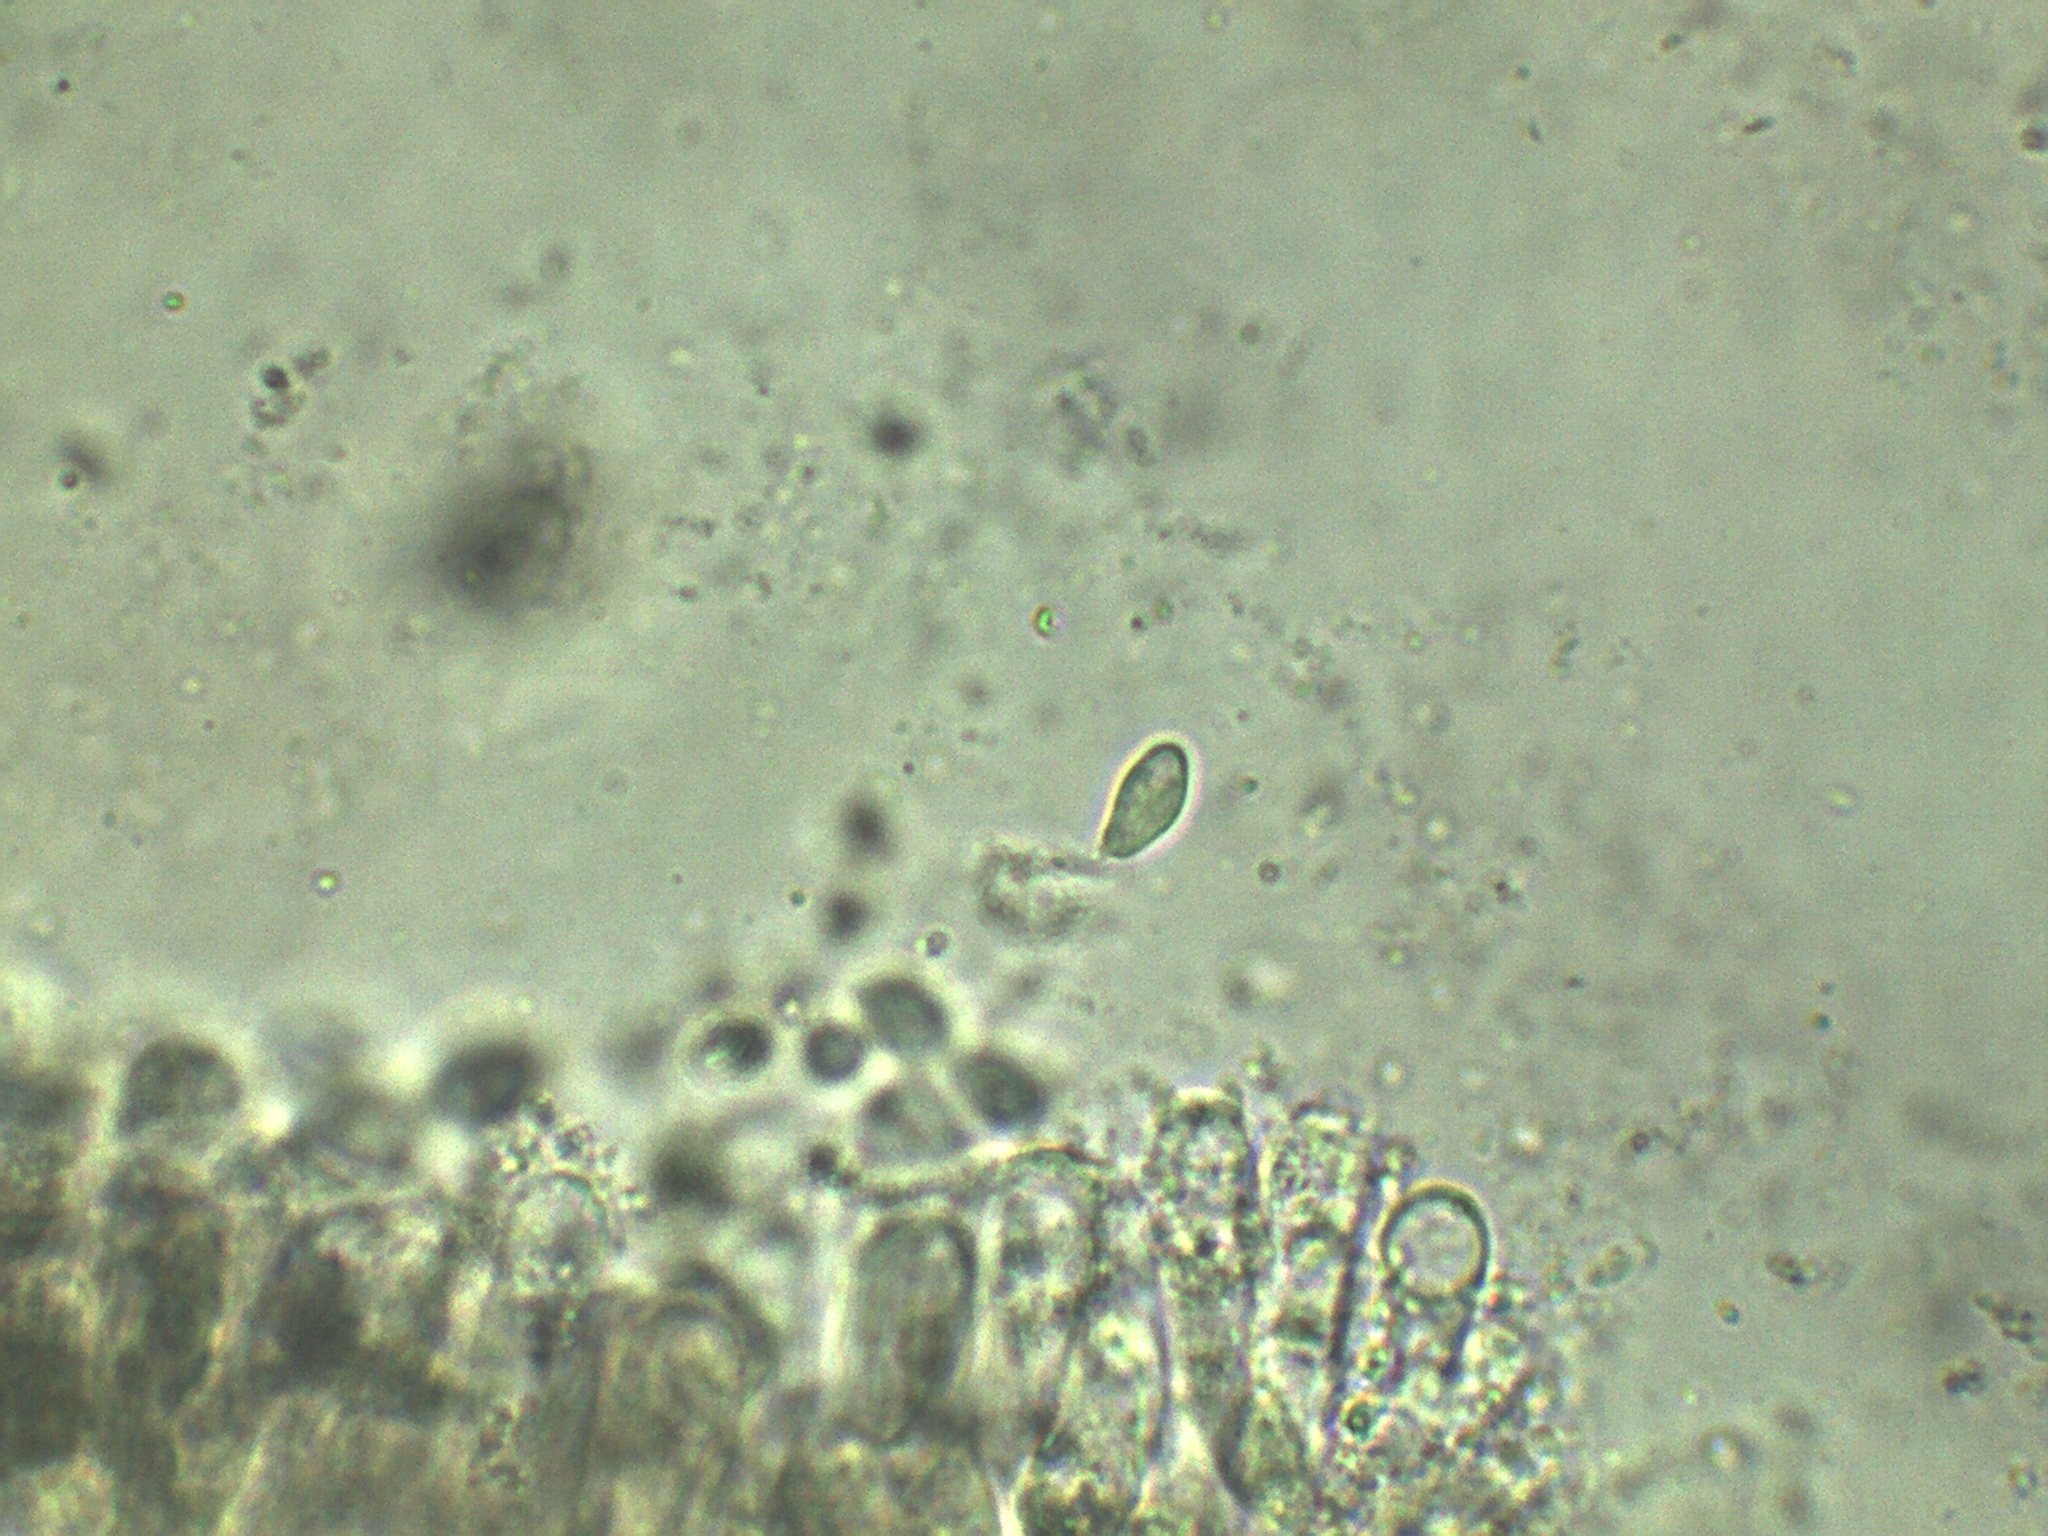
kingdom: Fungi
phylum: Basidiomycota
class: Agaricomycetes
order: Agaricales
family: Lyophyllaceae
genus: Lyophyllum
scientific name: Lyophyllum fuligineum
